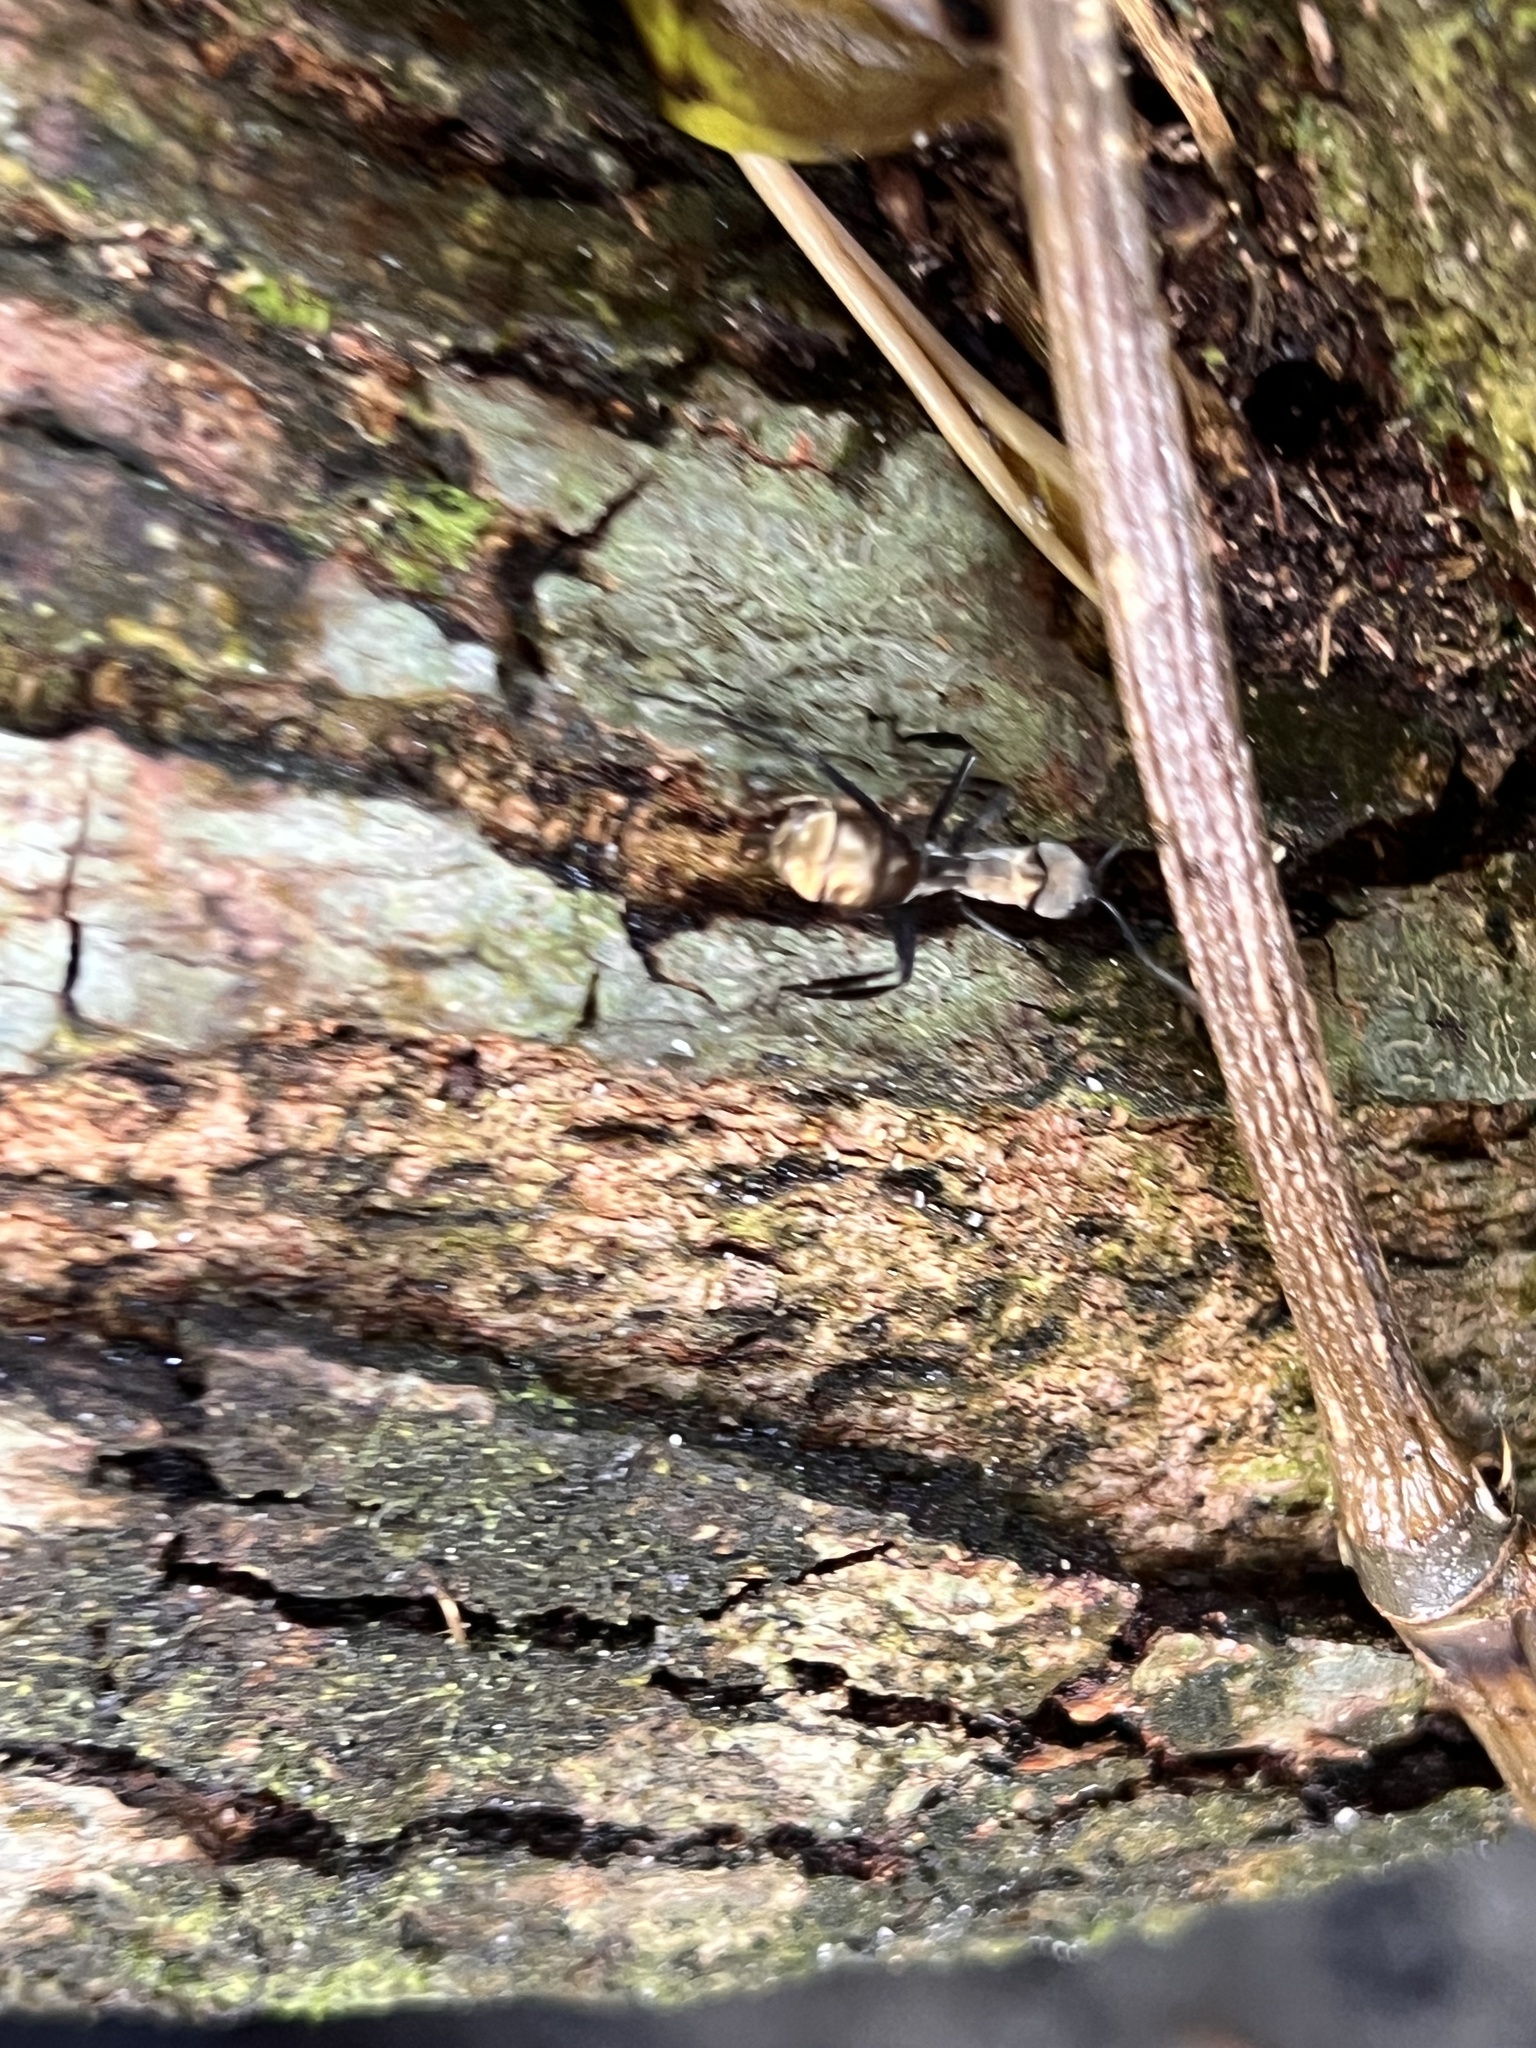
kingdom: Animalia
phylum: Arthropoda
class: Insecta
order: Hymenoptera
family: Formicidae
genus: Camponotus
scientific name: Camponotus sericeiventris
